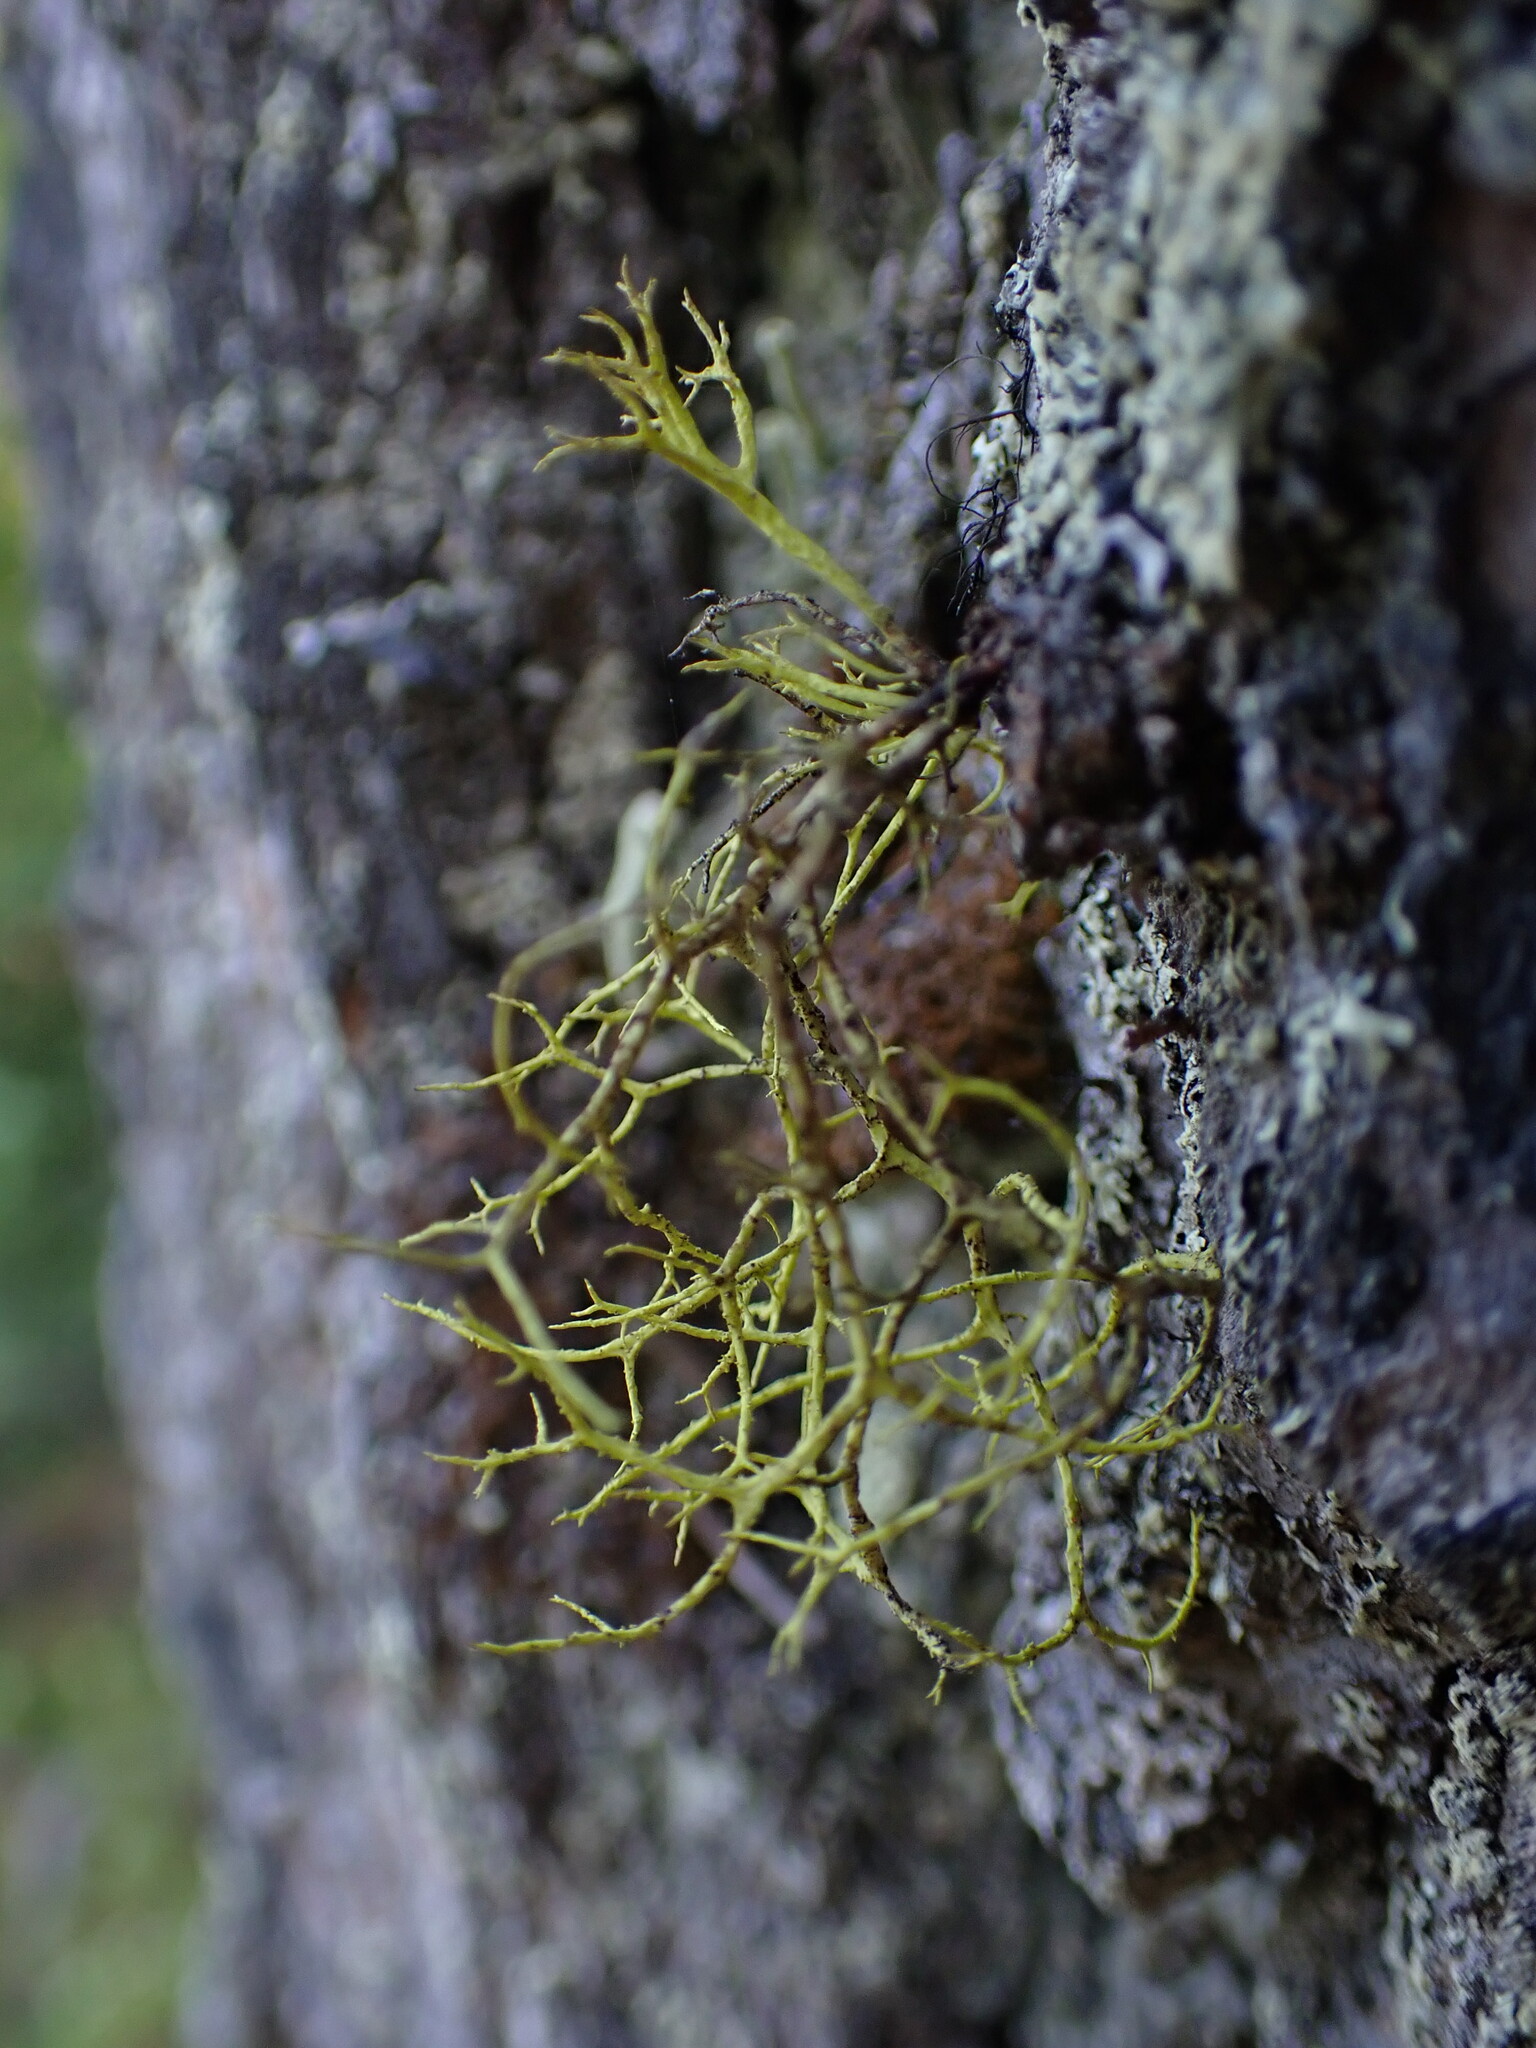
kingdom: Fungi
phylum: Ascomycota
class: Lecanoromycetes
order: Lecanorales
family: Parmeliaceae
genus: Letharia
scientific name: Letharia vulpina
